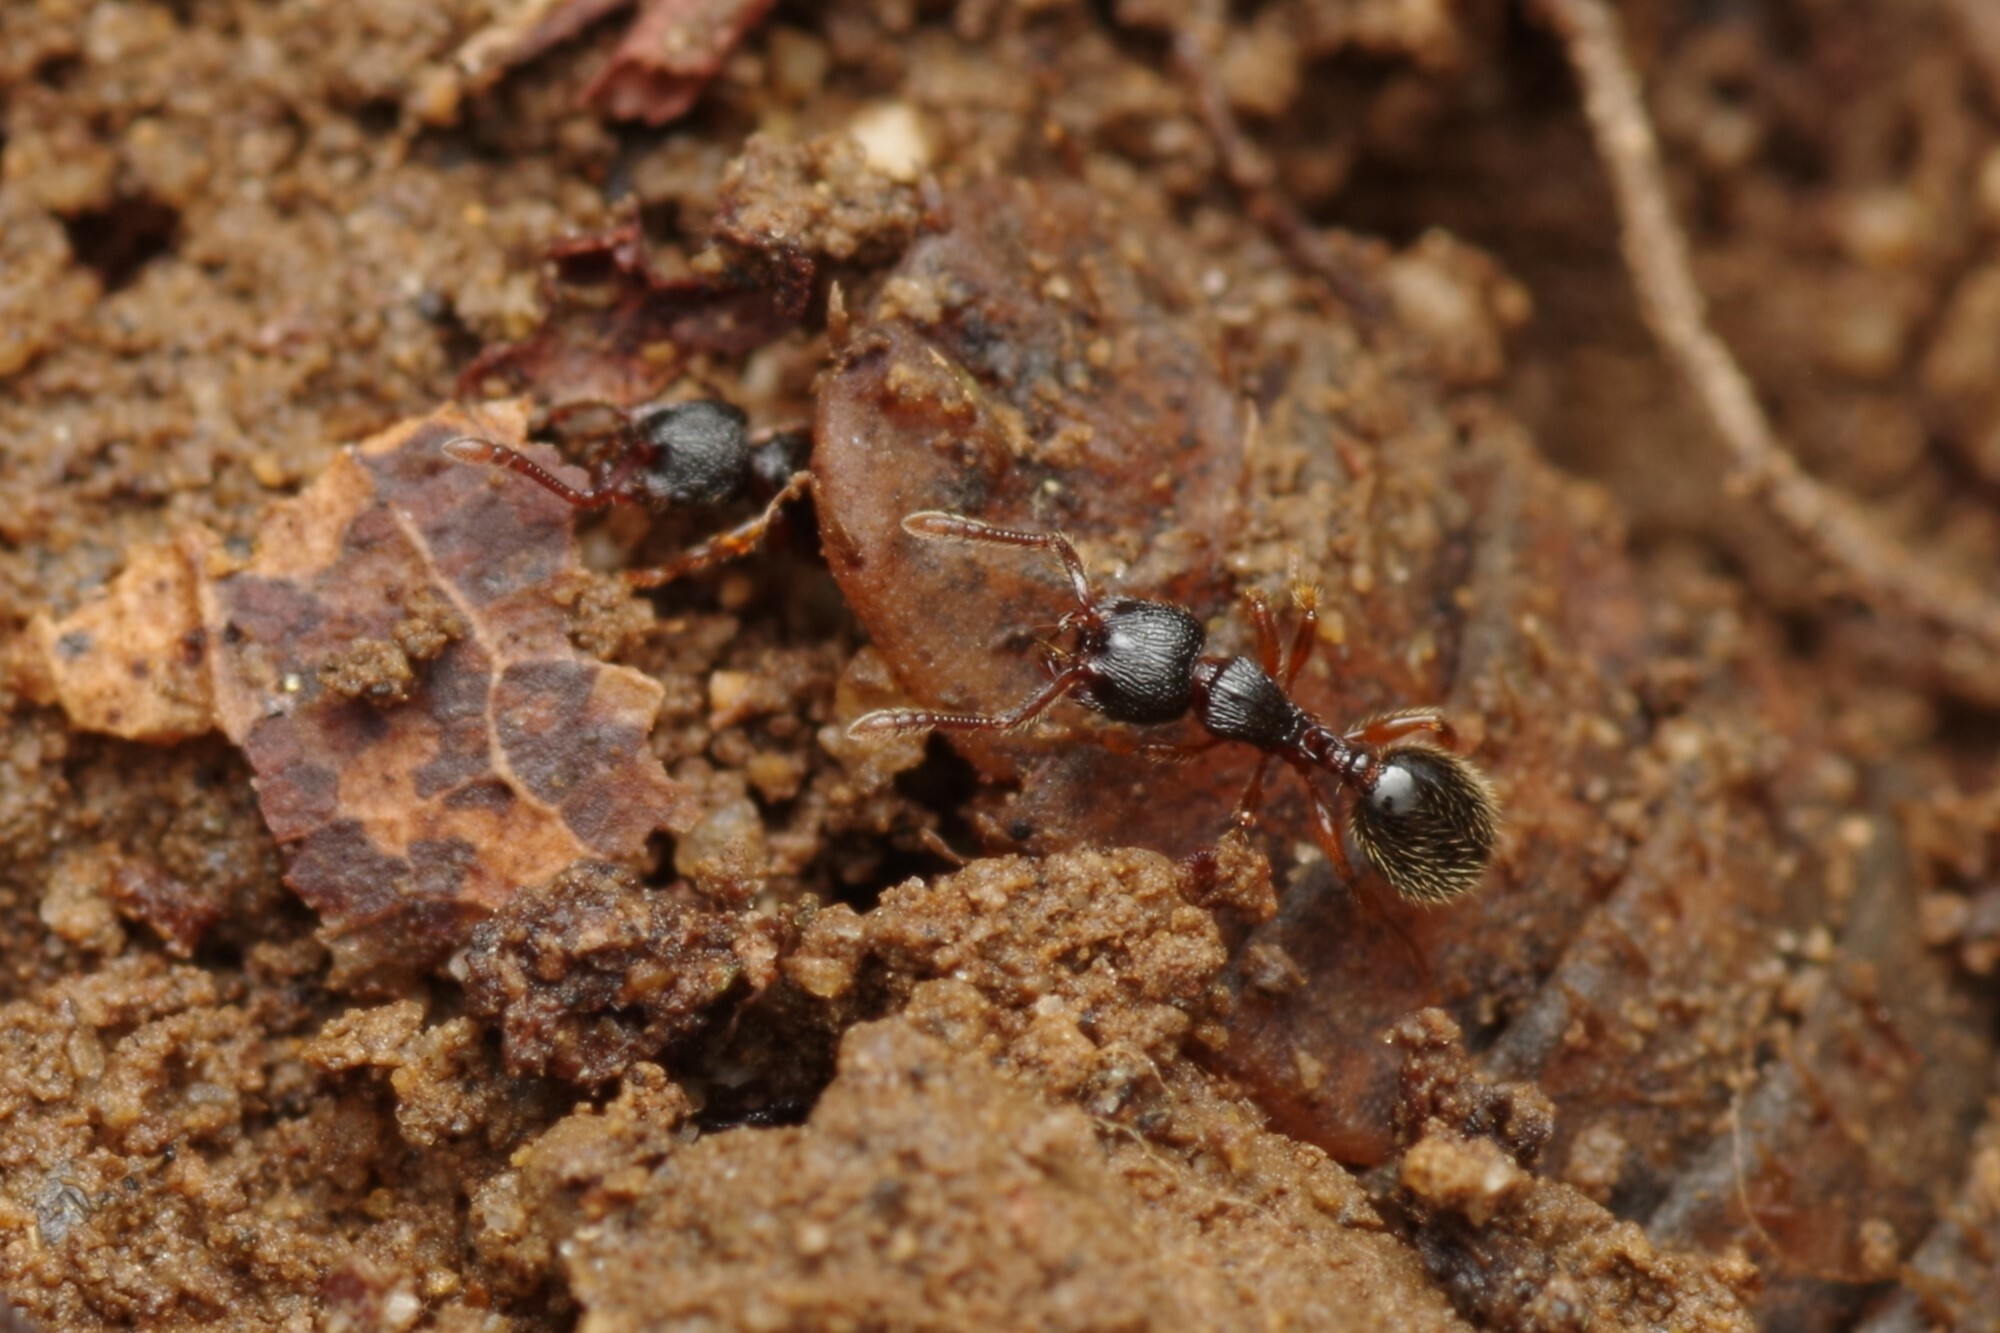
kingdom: Animalia
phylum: Arthropoda
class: Insecta
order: Hymenoptera
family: Formicidae
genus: Myrmecina
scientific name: Myrmecina graminicola
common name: Grass ant
